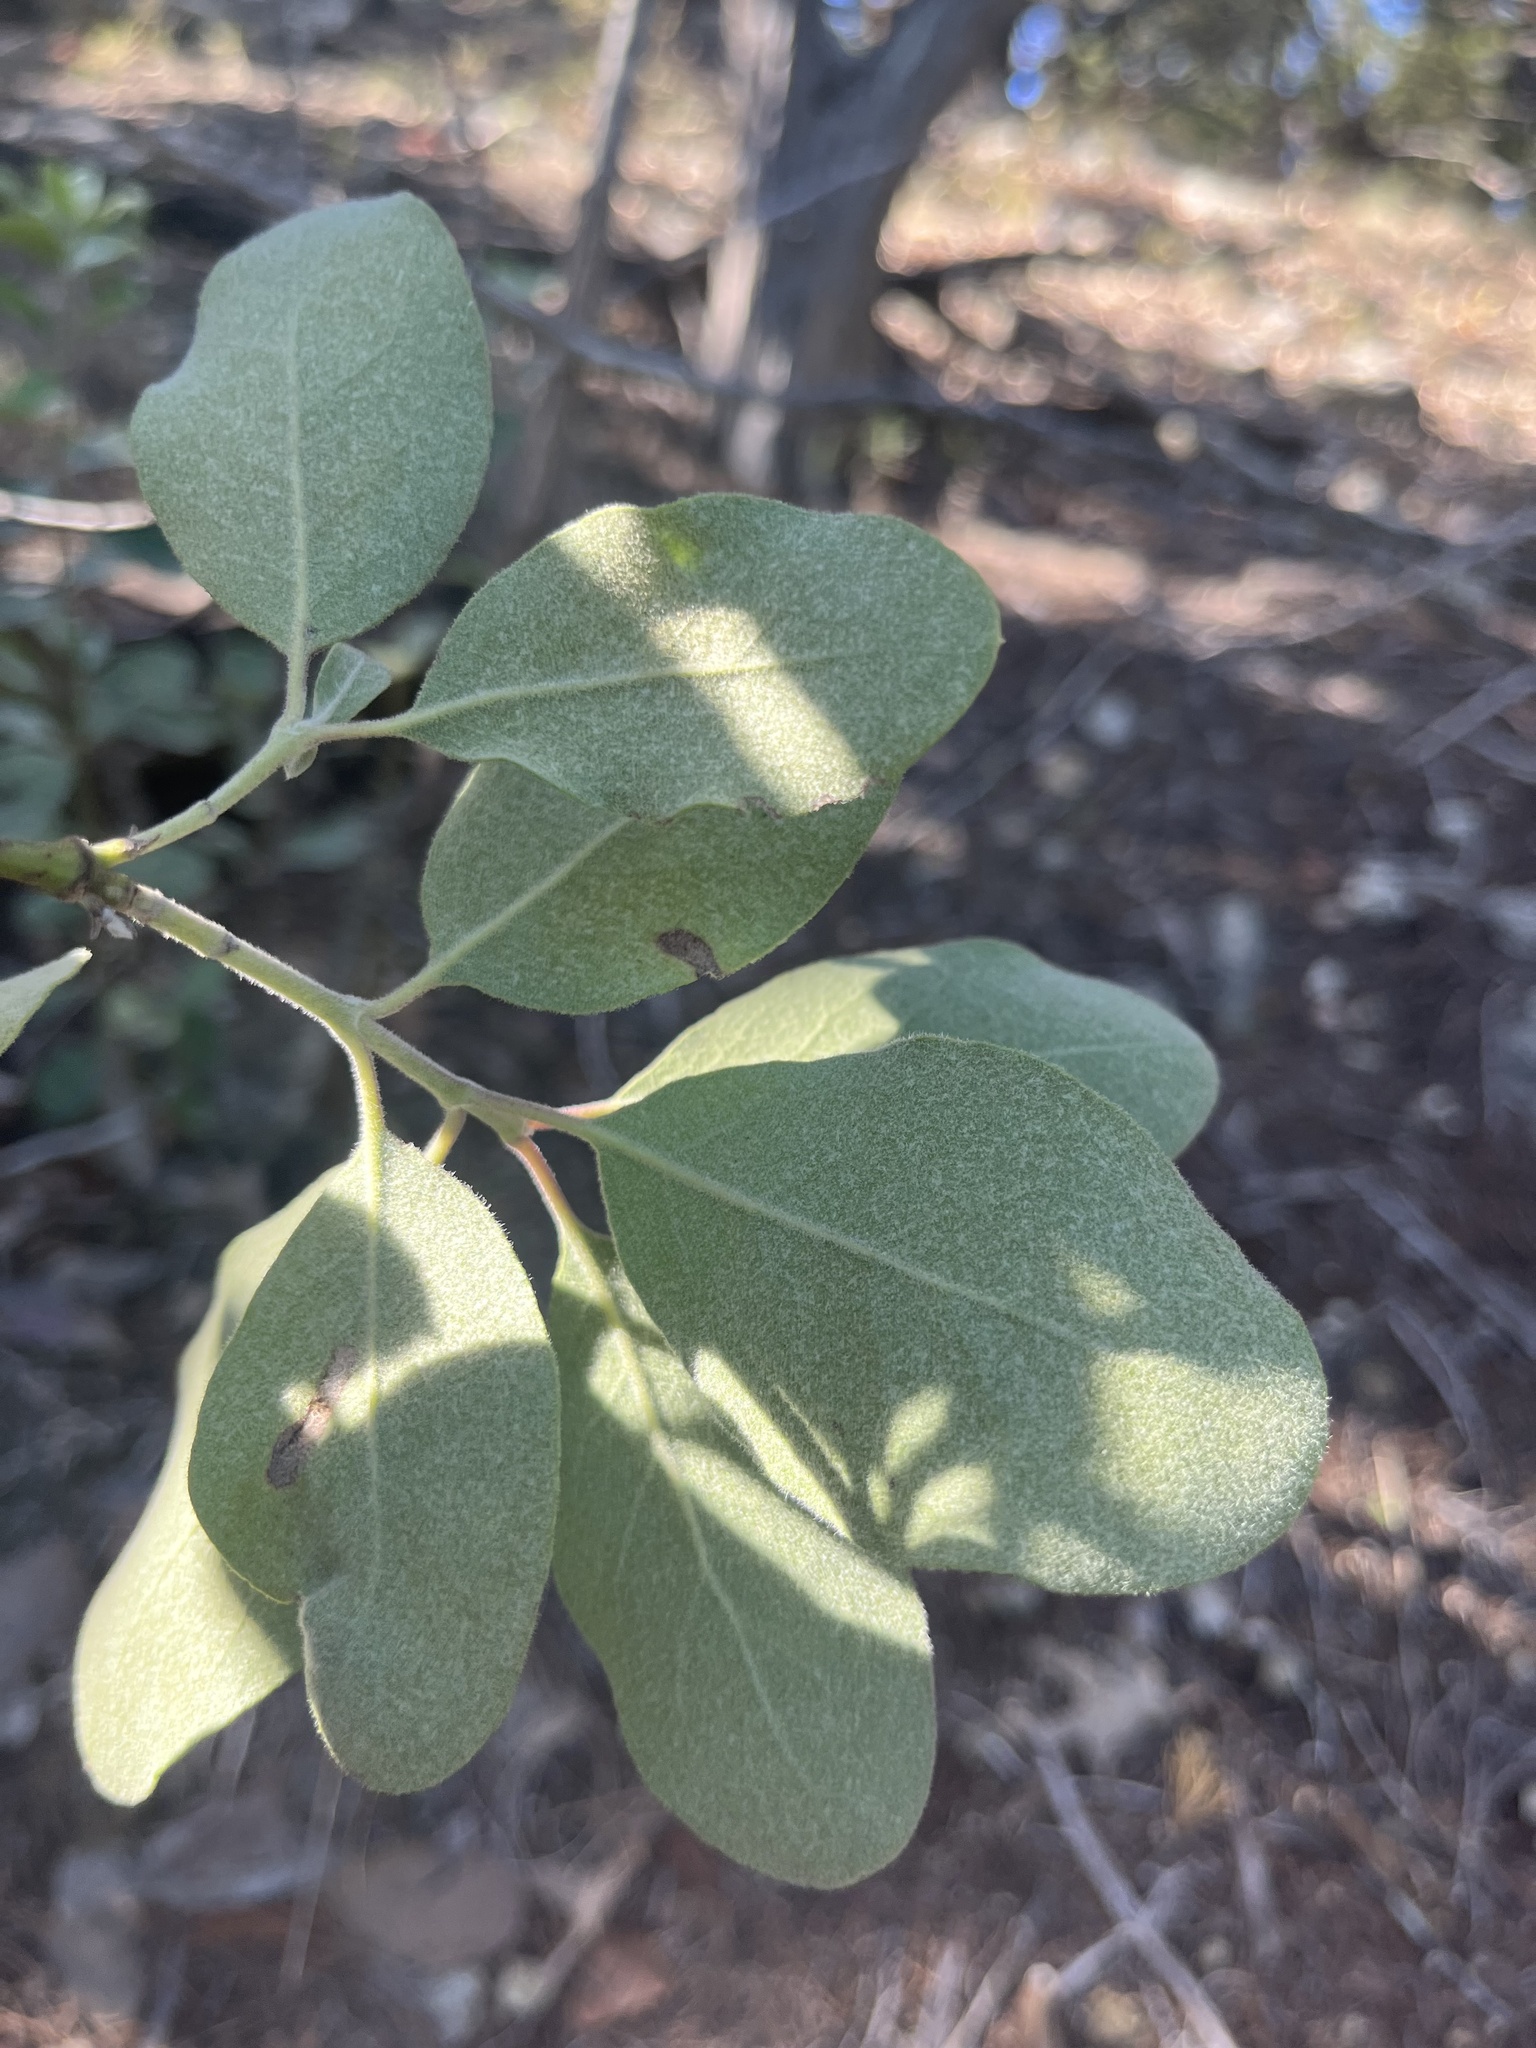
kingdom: Plantae
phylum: Tracheophyta
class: Magnoliopsida
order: Garryales
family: Garryaceae
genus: Garrya
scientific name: Garrya lindheimeri
